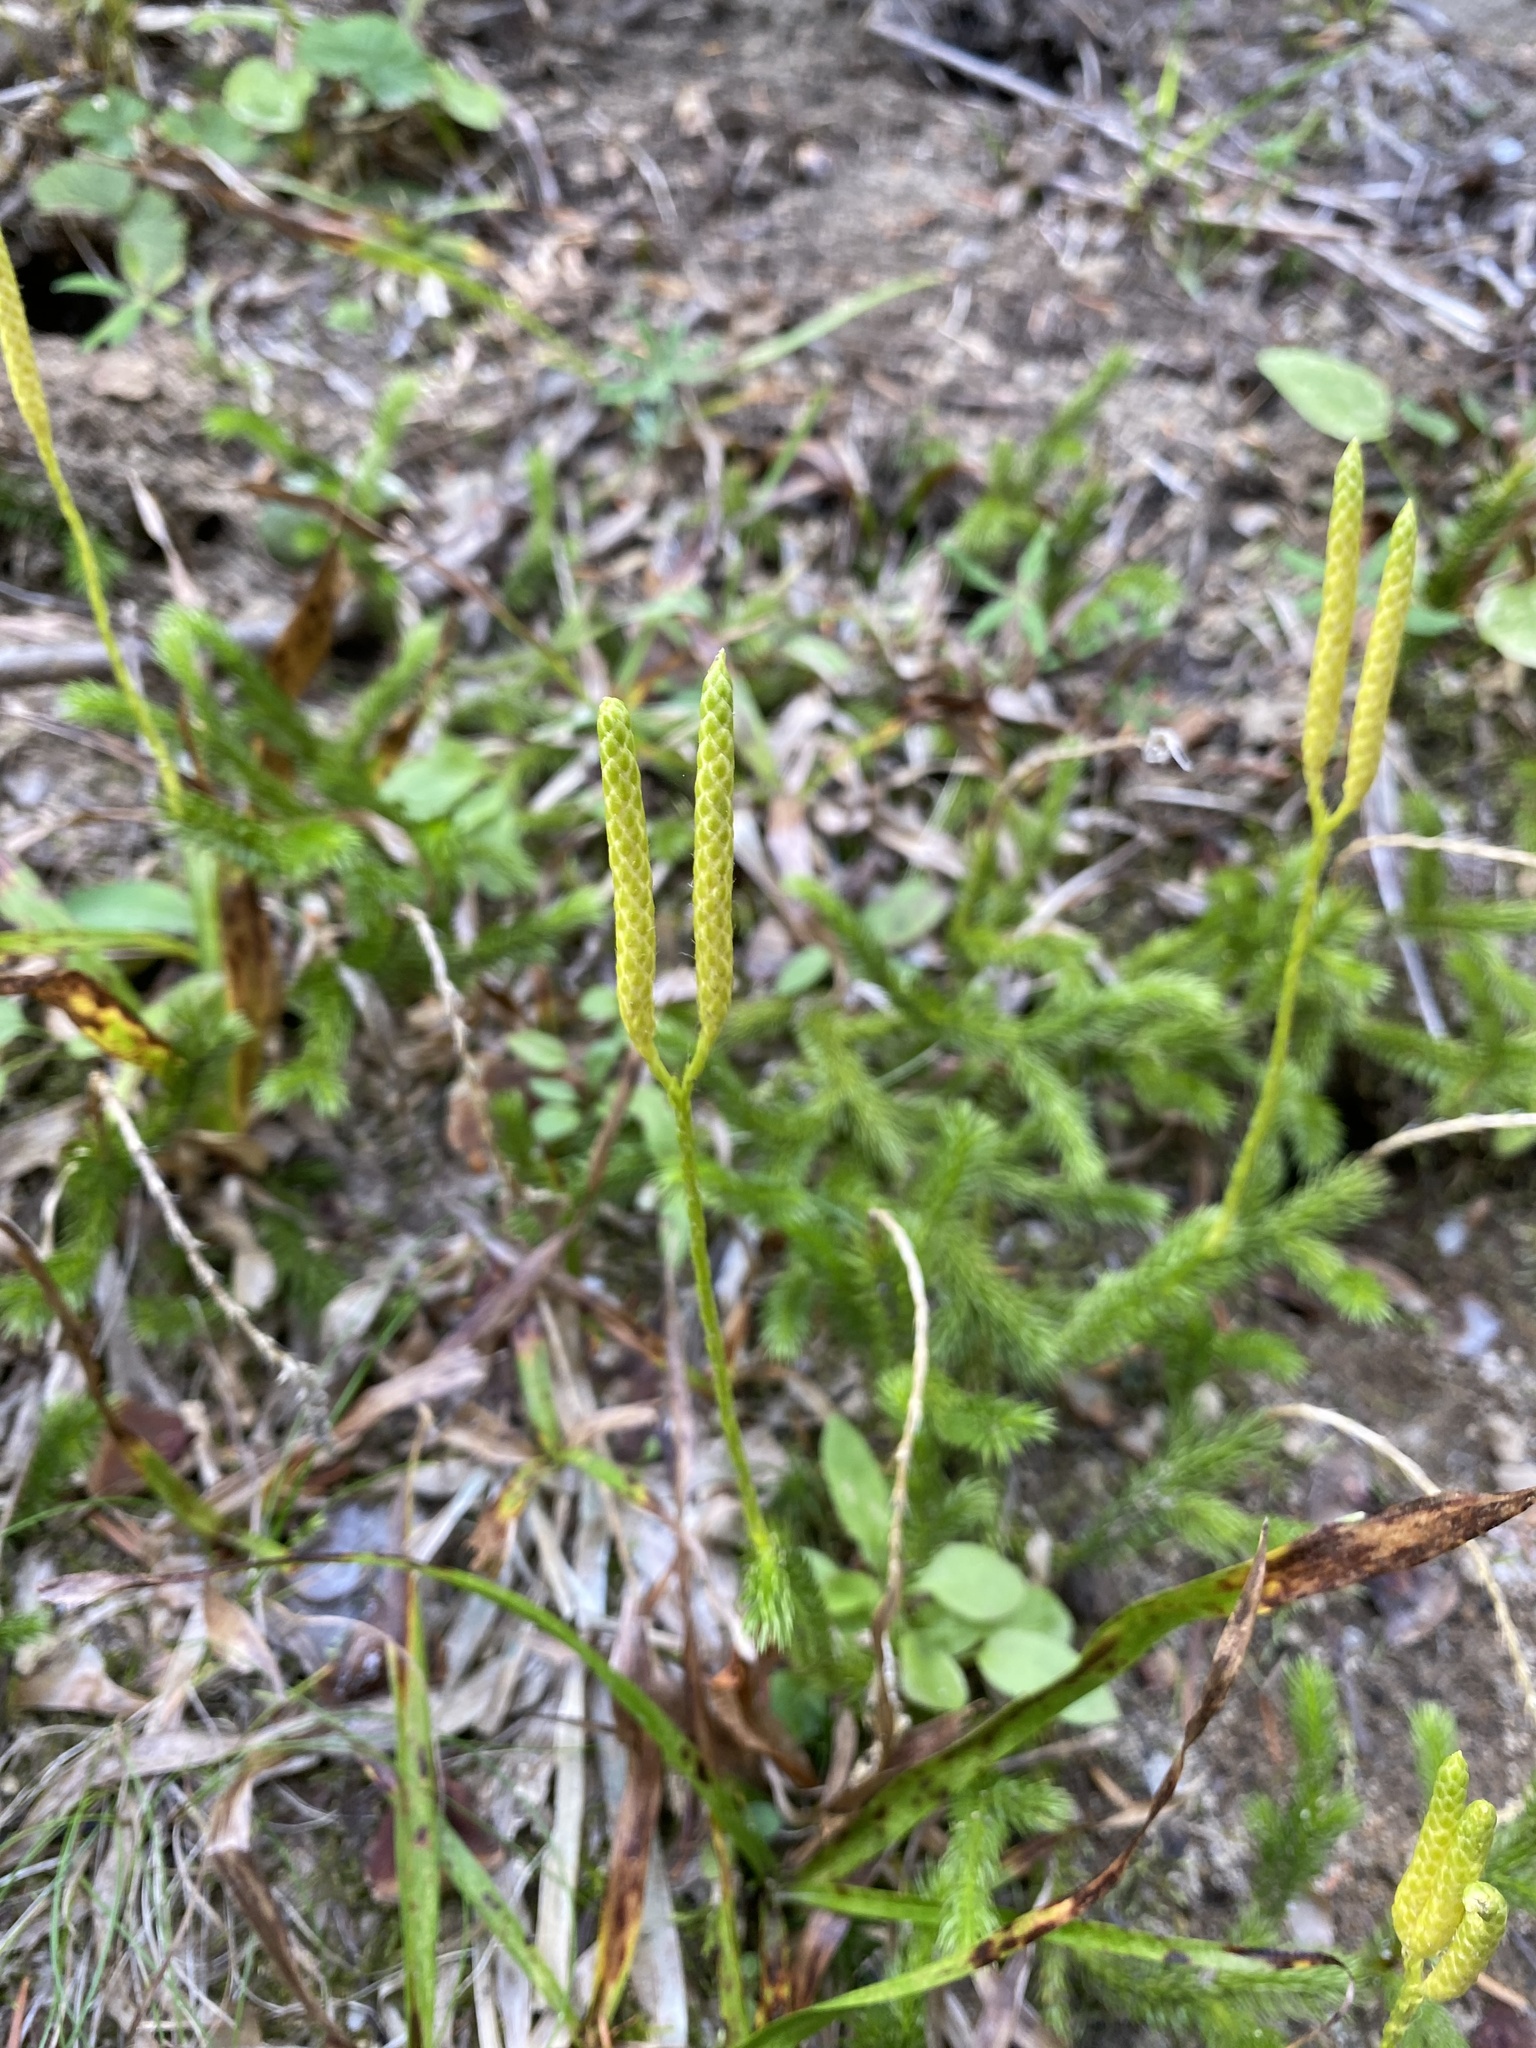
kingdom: Plantae
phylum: Tracheophyta
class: Lycopodiopsida
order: Lycopodiales
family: Lycopodiaceae
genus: Lycopodium
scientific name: Lycopodium clavatum
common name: Stag's-horn clubmoss
